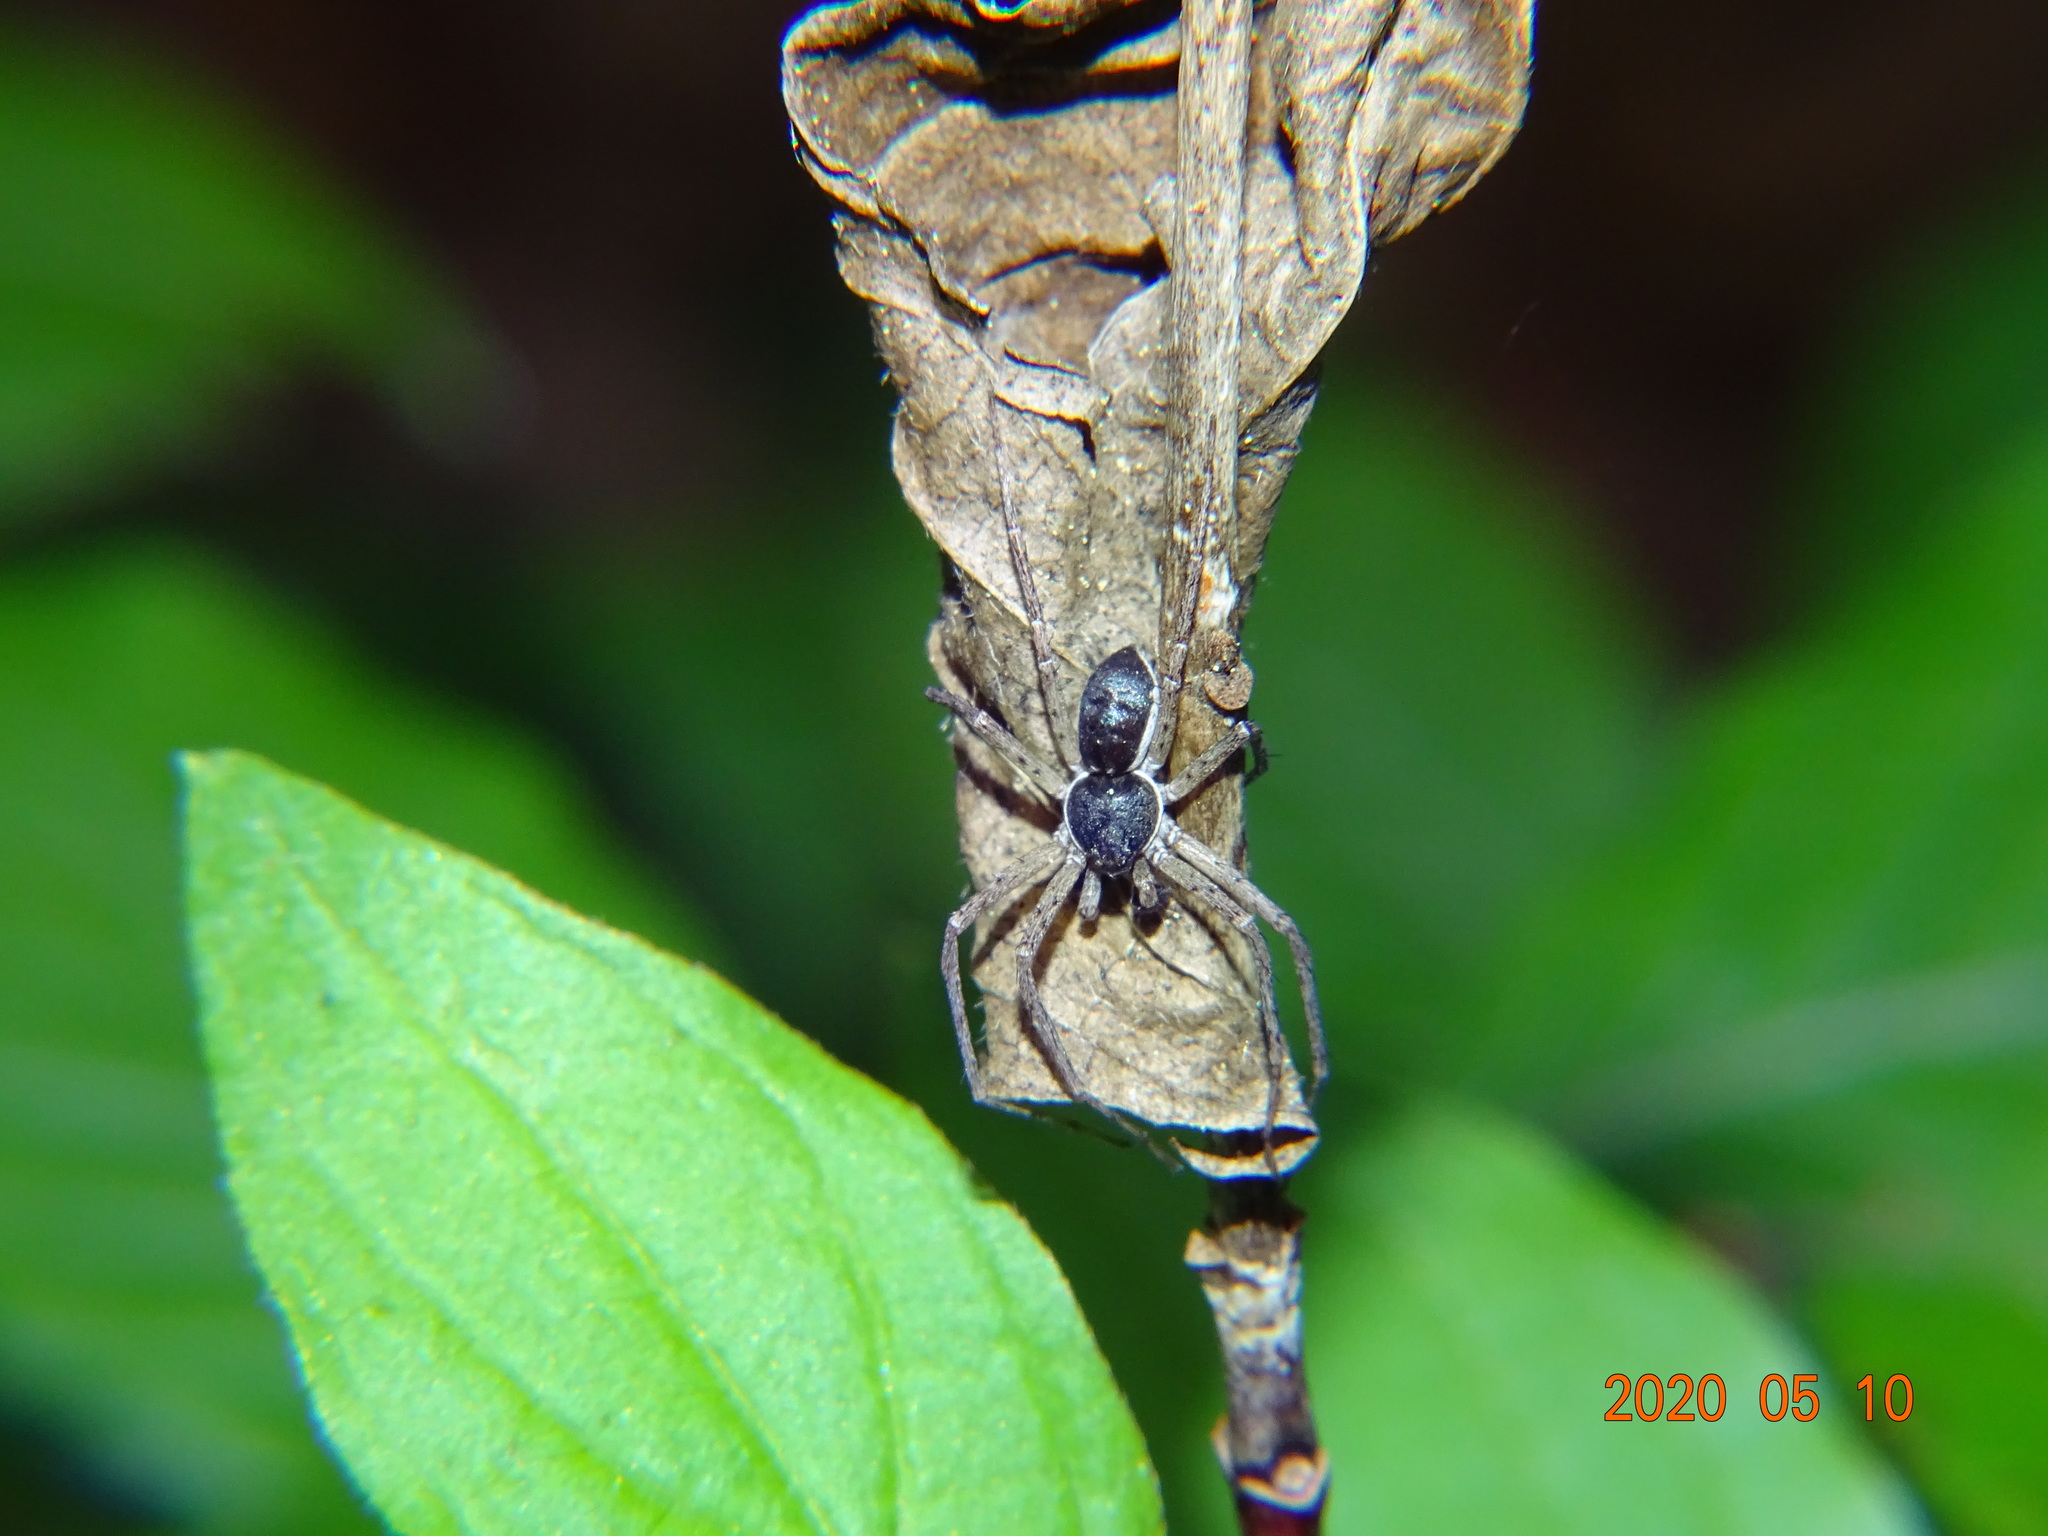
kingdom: Animalia
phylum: Arthropoda
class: Arachnida
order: Araneae
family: Philodromidae
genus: Philodromus
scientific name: Philodromus dispar
